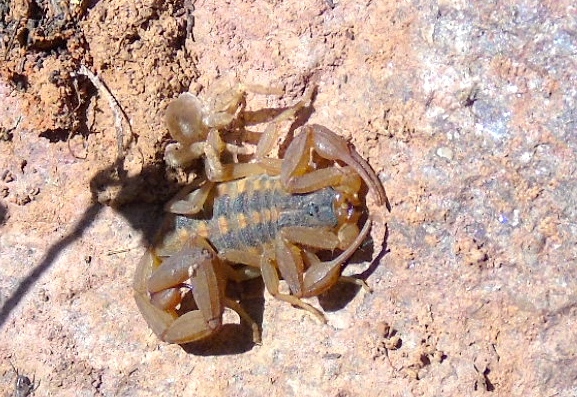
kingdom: Animalia
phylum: Arthropoda
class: Arachnida
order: Scorpiones
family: Buthidae
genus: Centruroides
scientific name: Centruroides baldazoi
